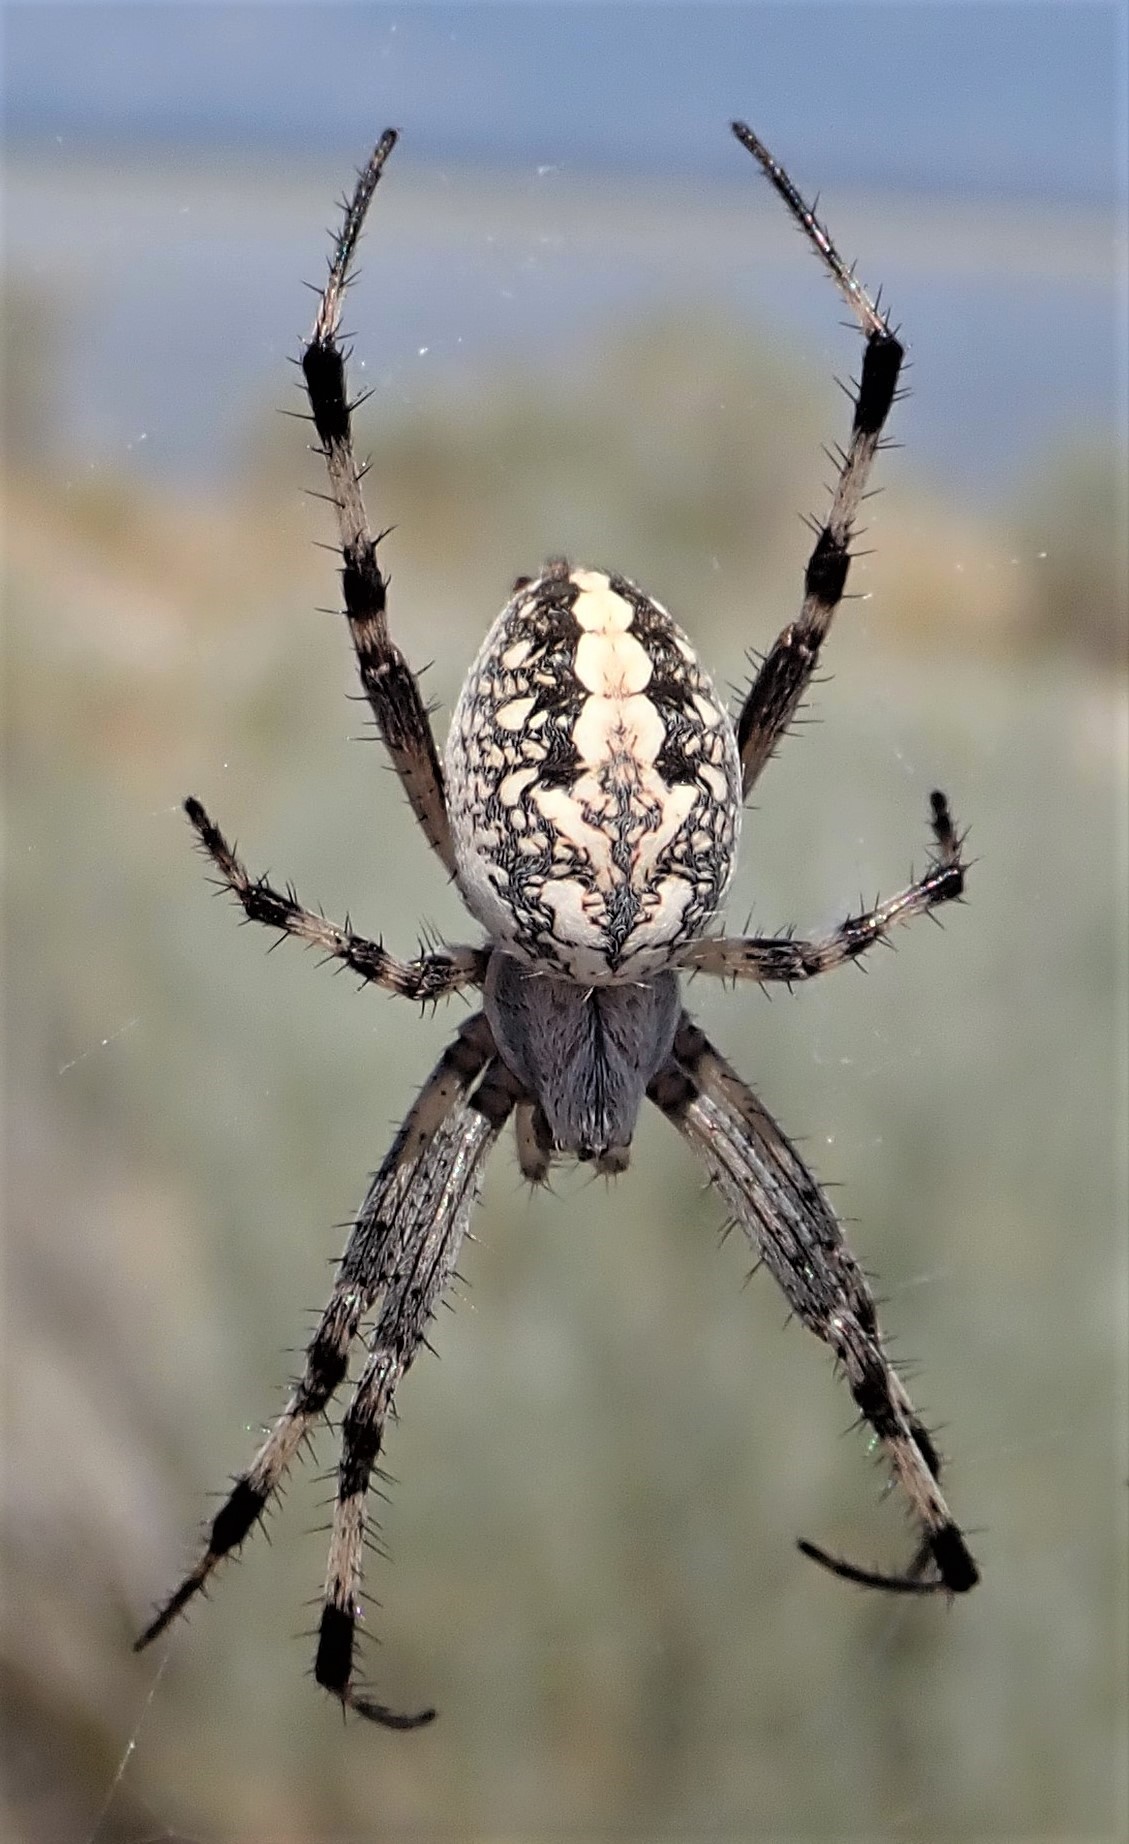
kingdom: Animalia
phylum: Arthropoda
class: Arachnida
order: Araneae
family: Araneidae
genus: Neoscona
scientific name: Neoscona oaxacensis
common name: Orb weavers
